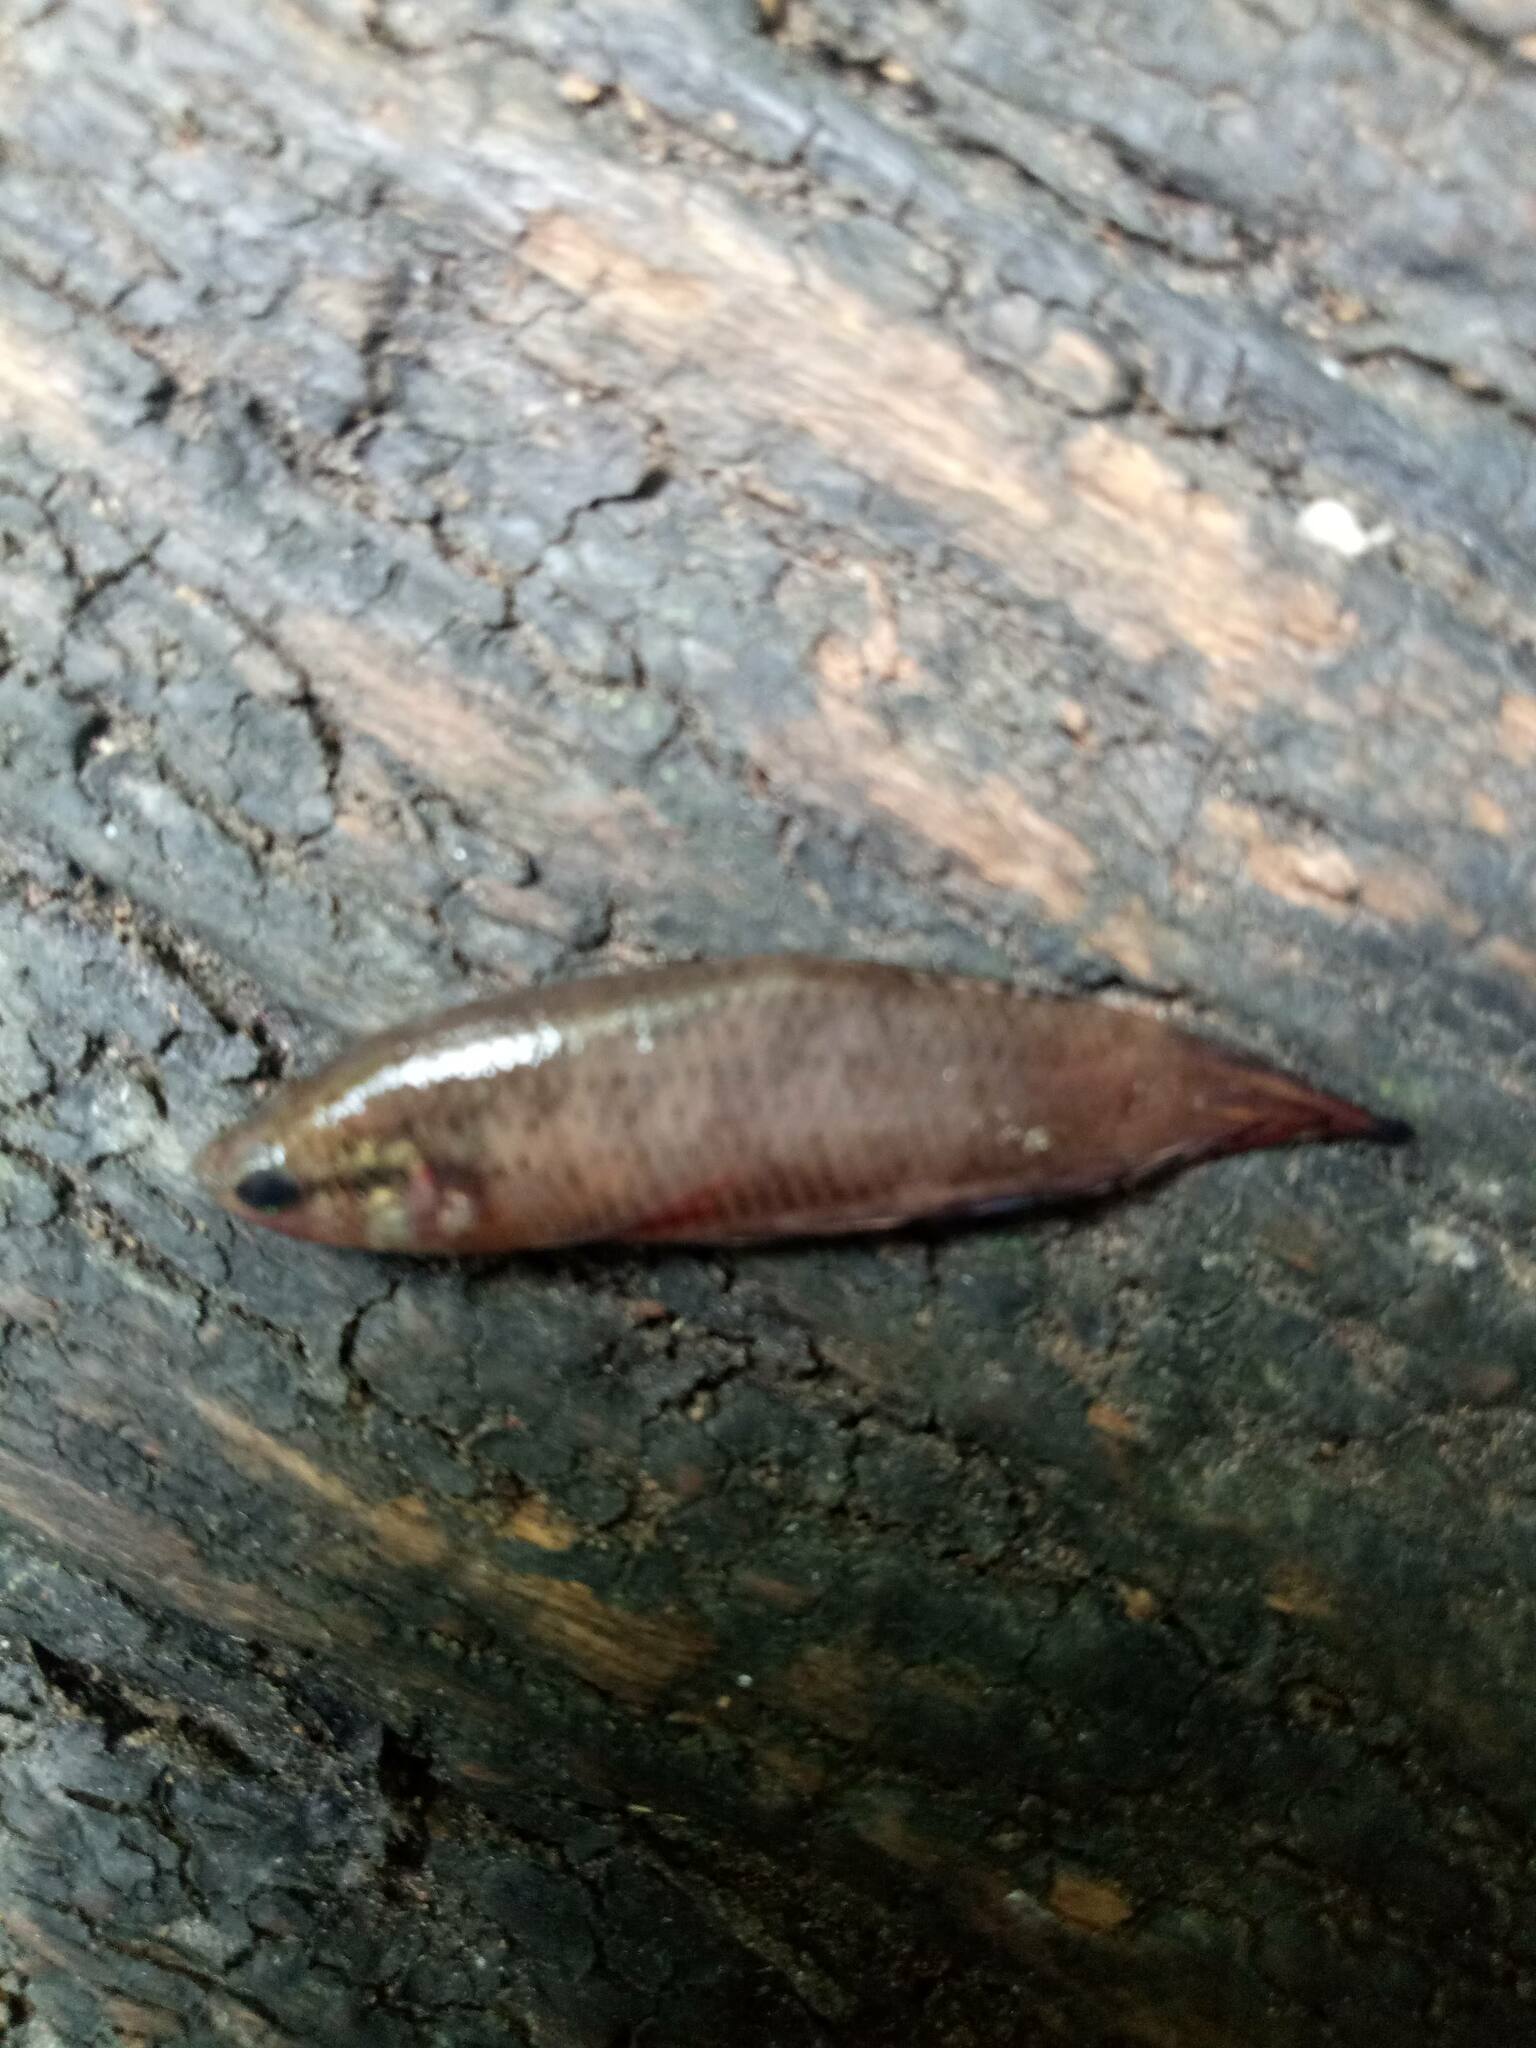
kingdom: Animalia
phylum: Chordata
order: Perciformes
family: Osphronemidae
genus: Trichopsis
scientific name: Trichopsis vittata
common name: Croaking gourami
